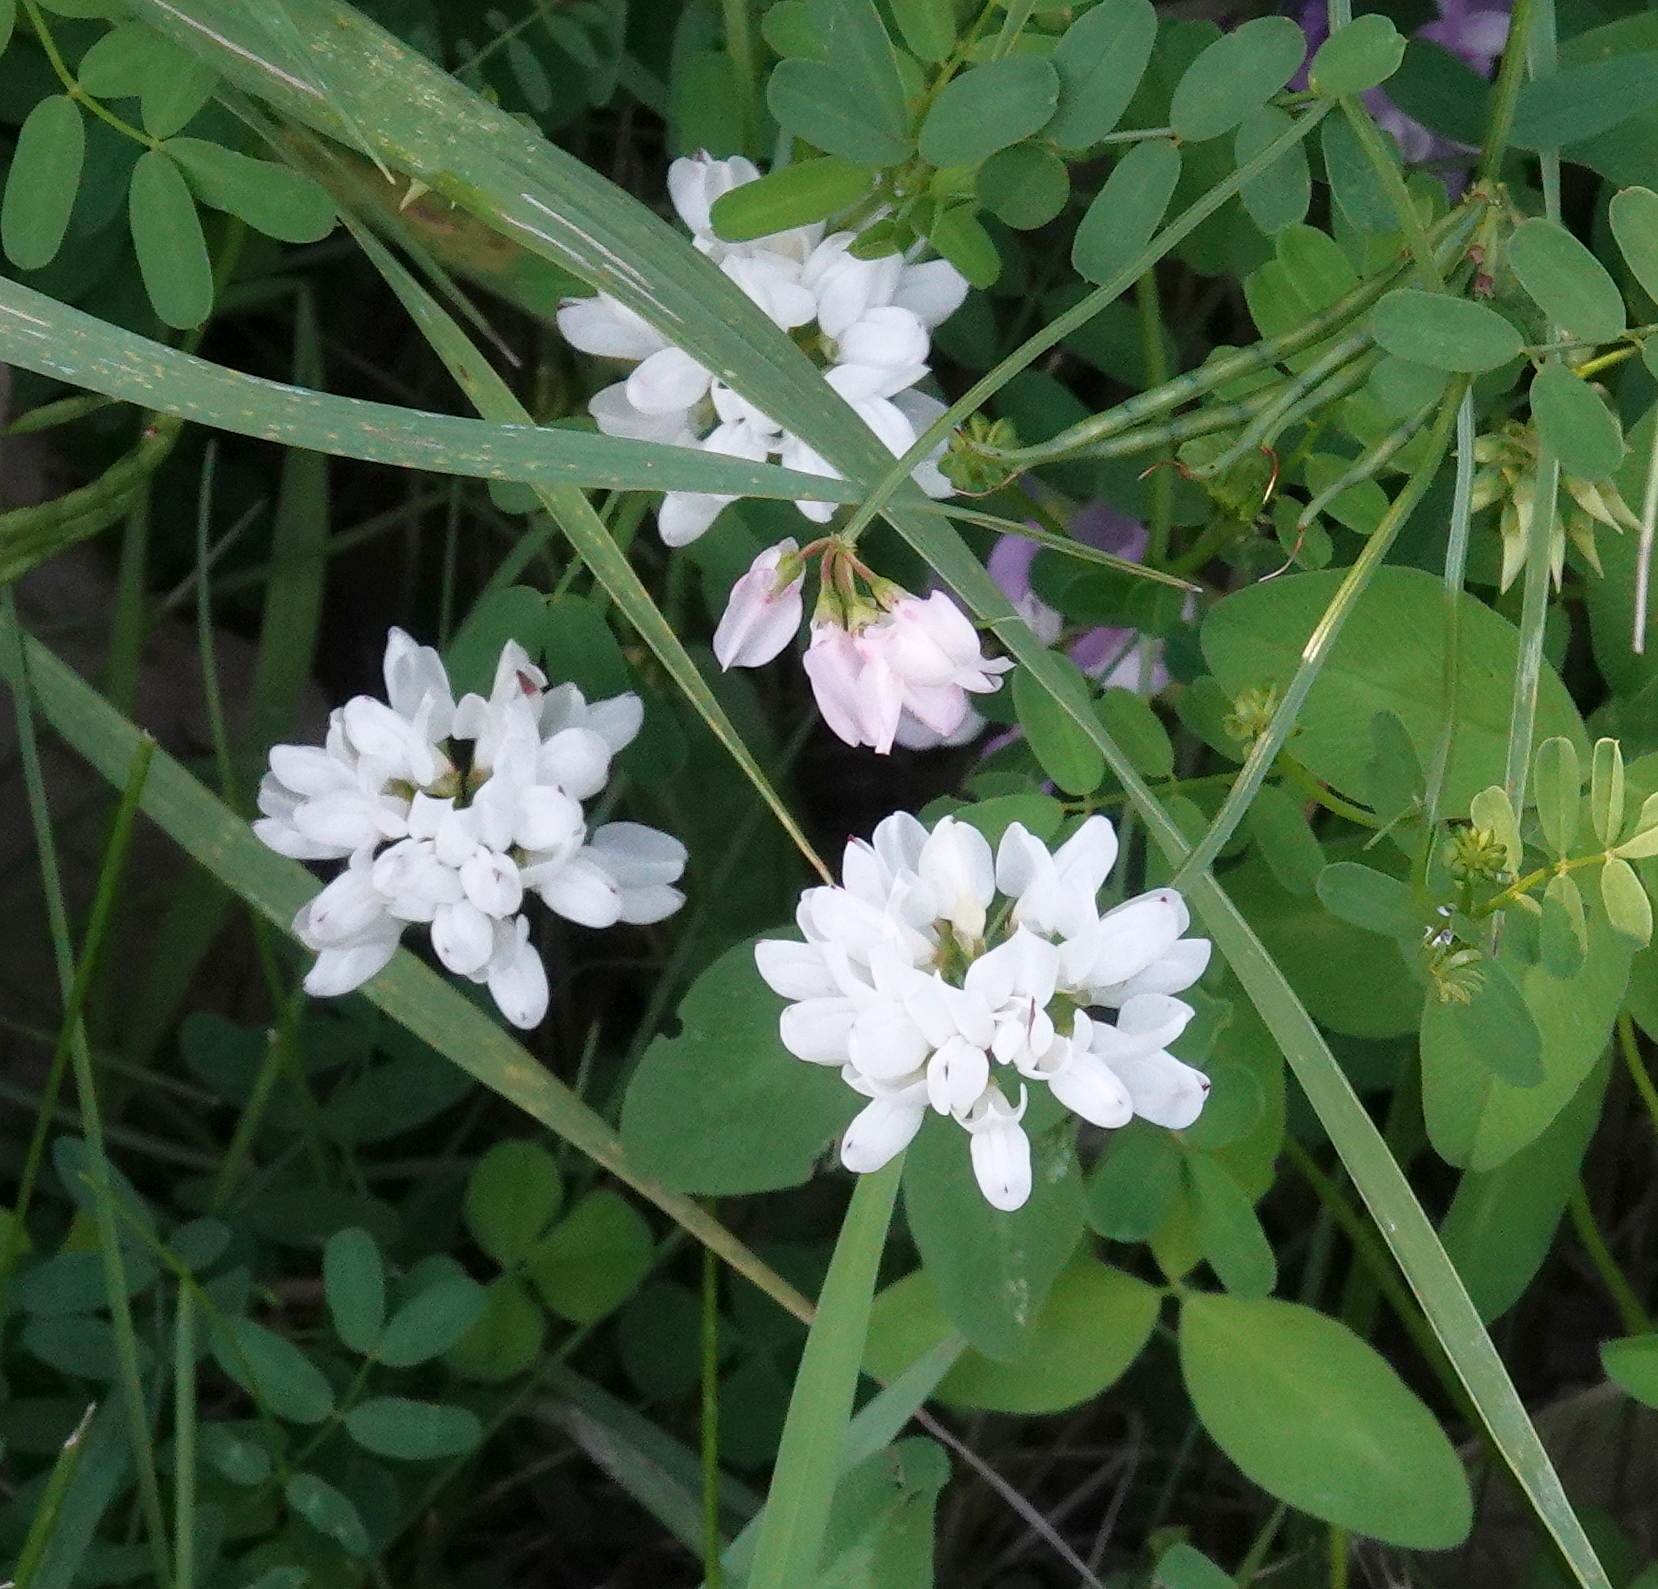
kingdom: Plantae
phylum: Tracheophyta
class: Magnoliopsida
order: Fabales
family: Fabaceae
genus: Coronilla
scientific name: Coronilla varia
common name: Crownvetch
